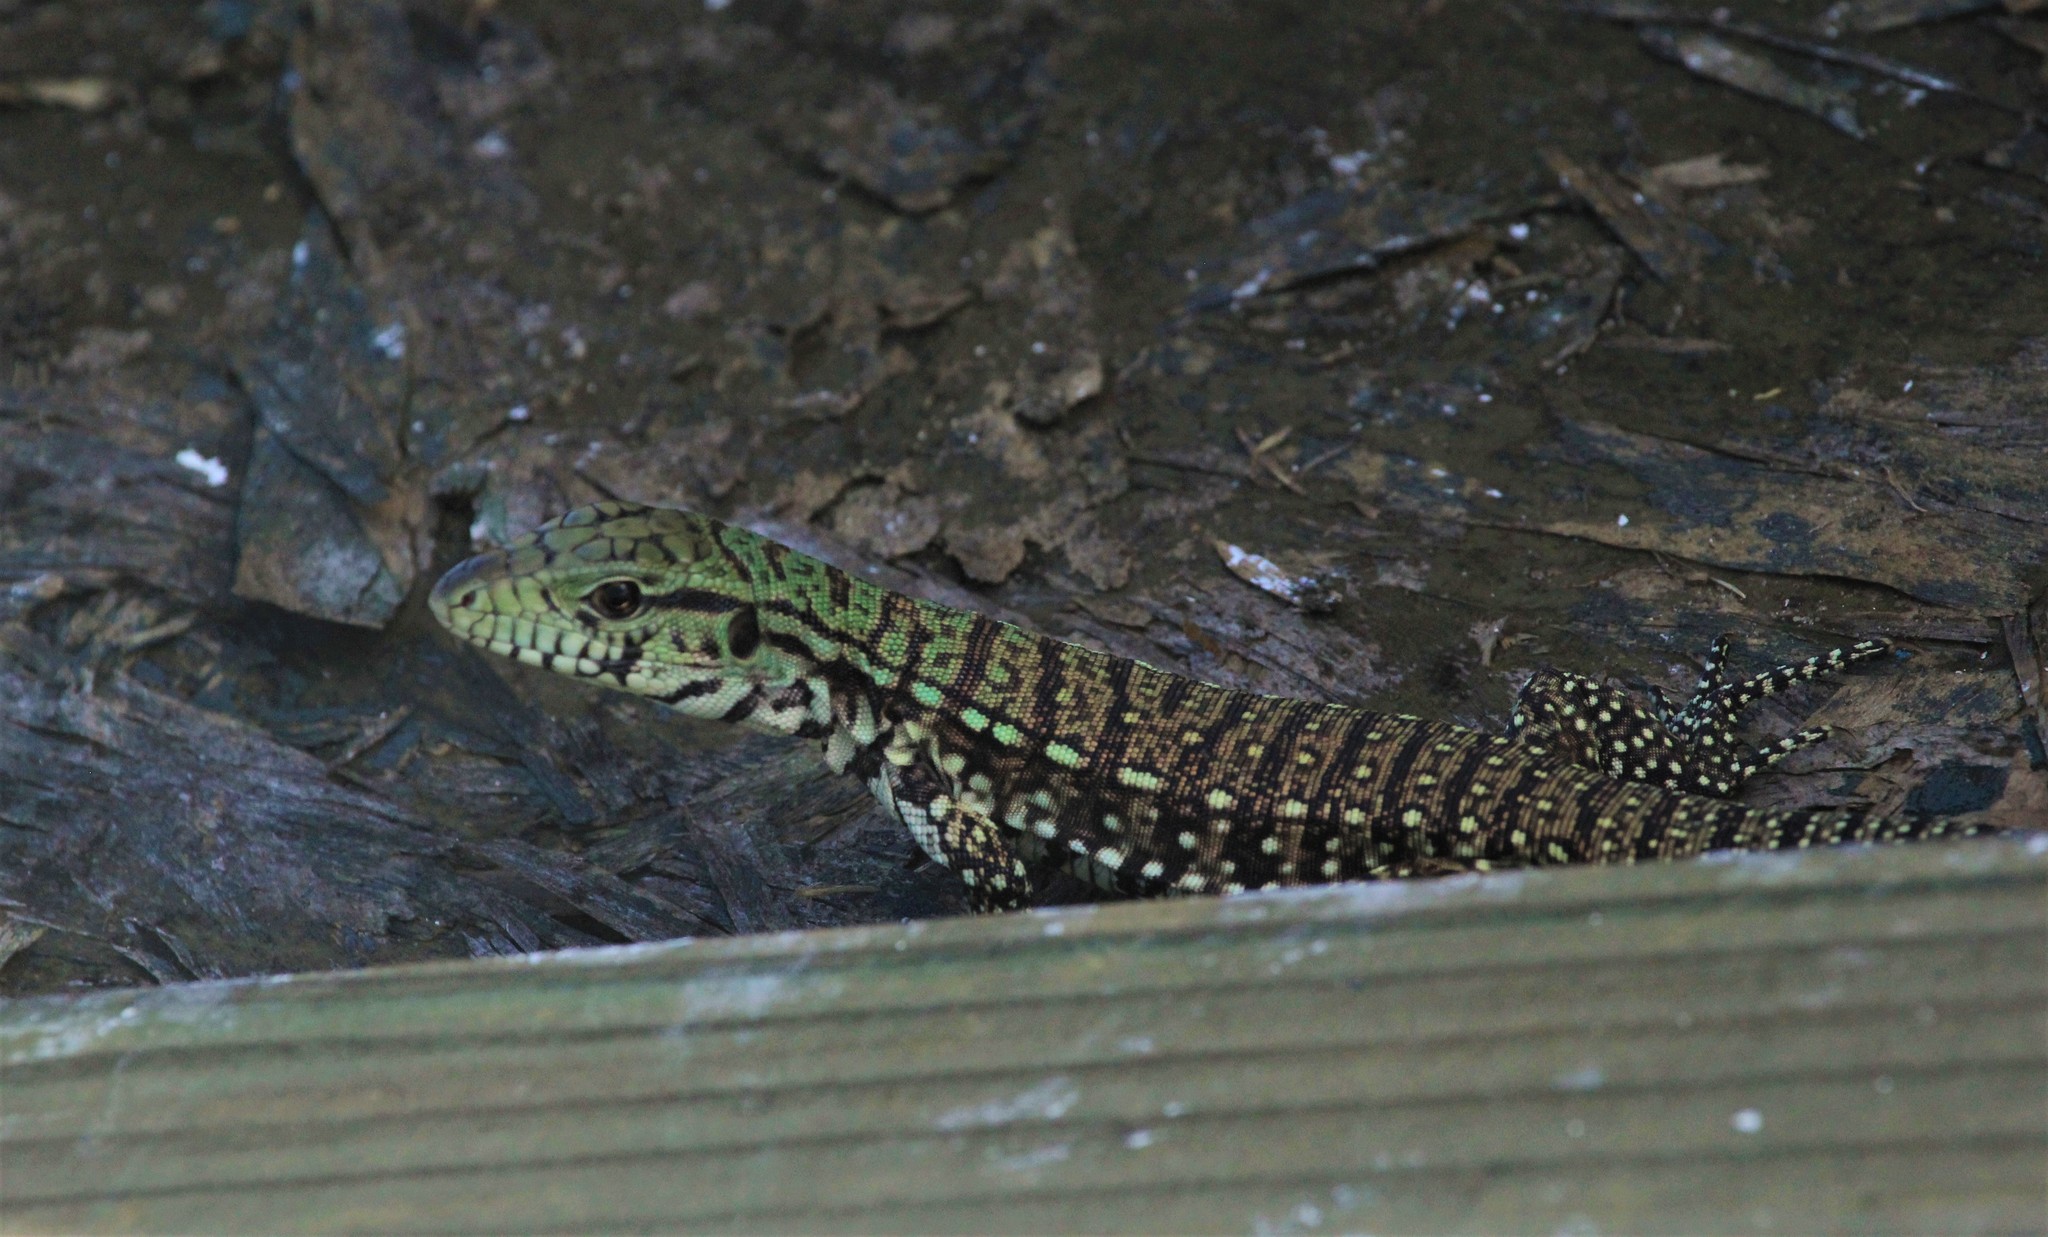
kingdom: Animalia
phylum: Chordata
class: Squamata
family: Teiidae
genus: Salvator
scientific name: Salvator merianae
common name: Argentine black and white tegu
